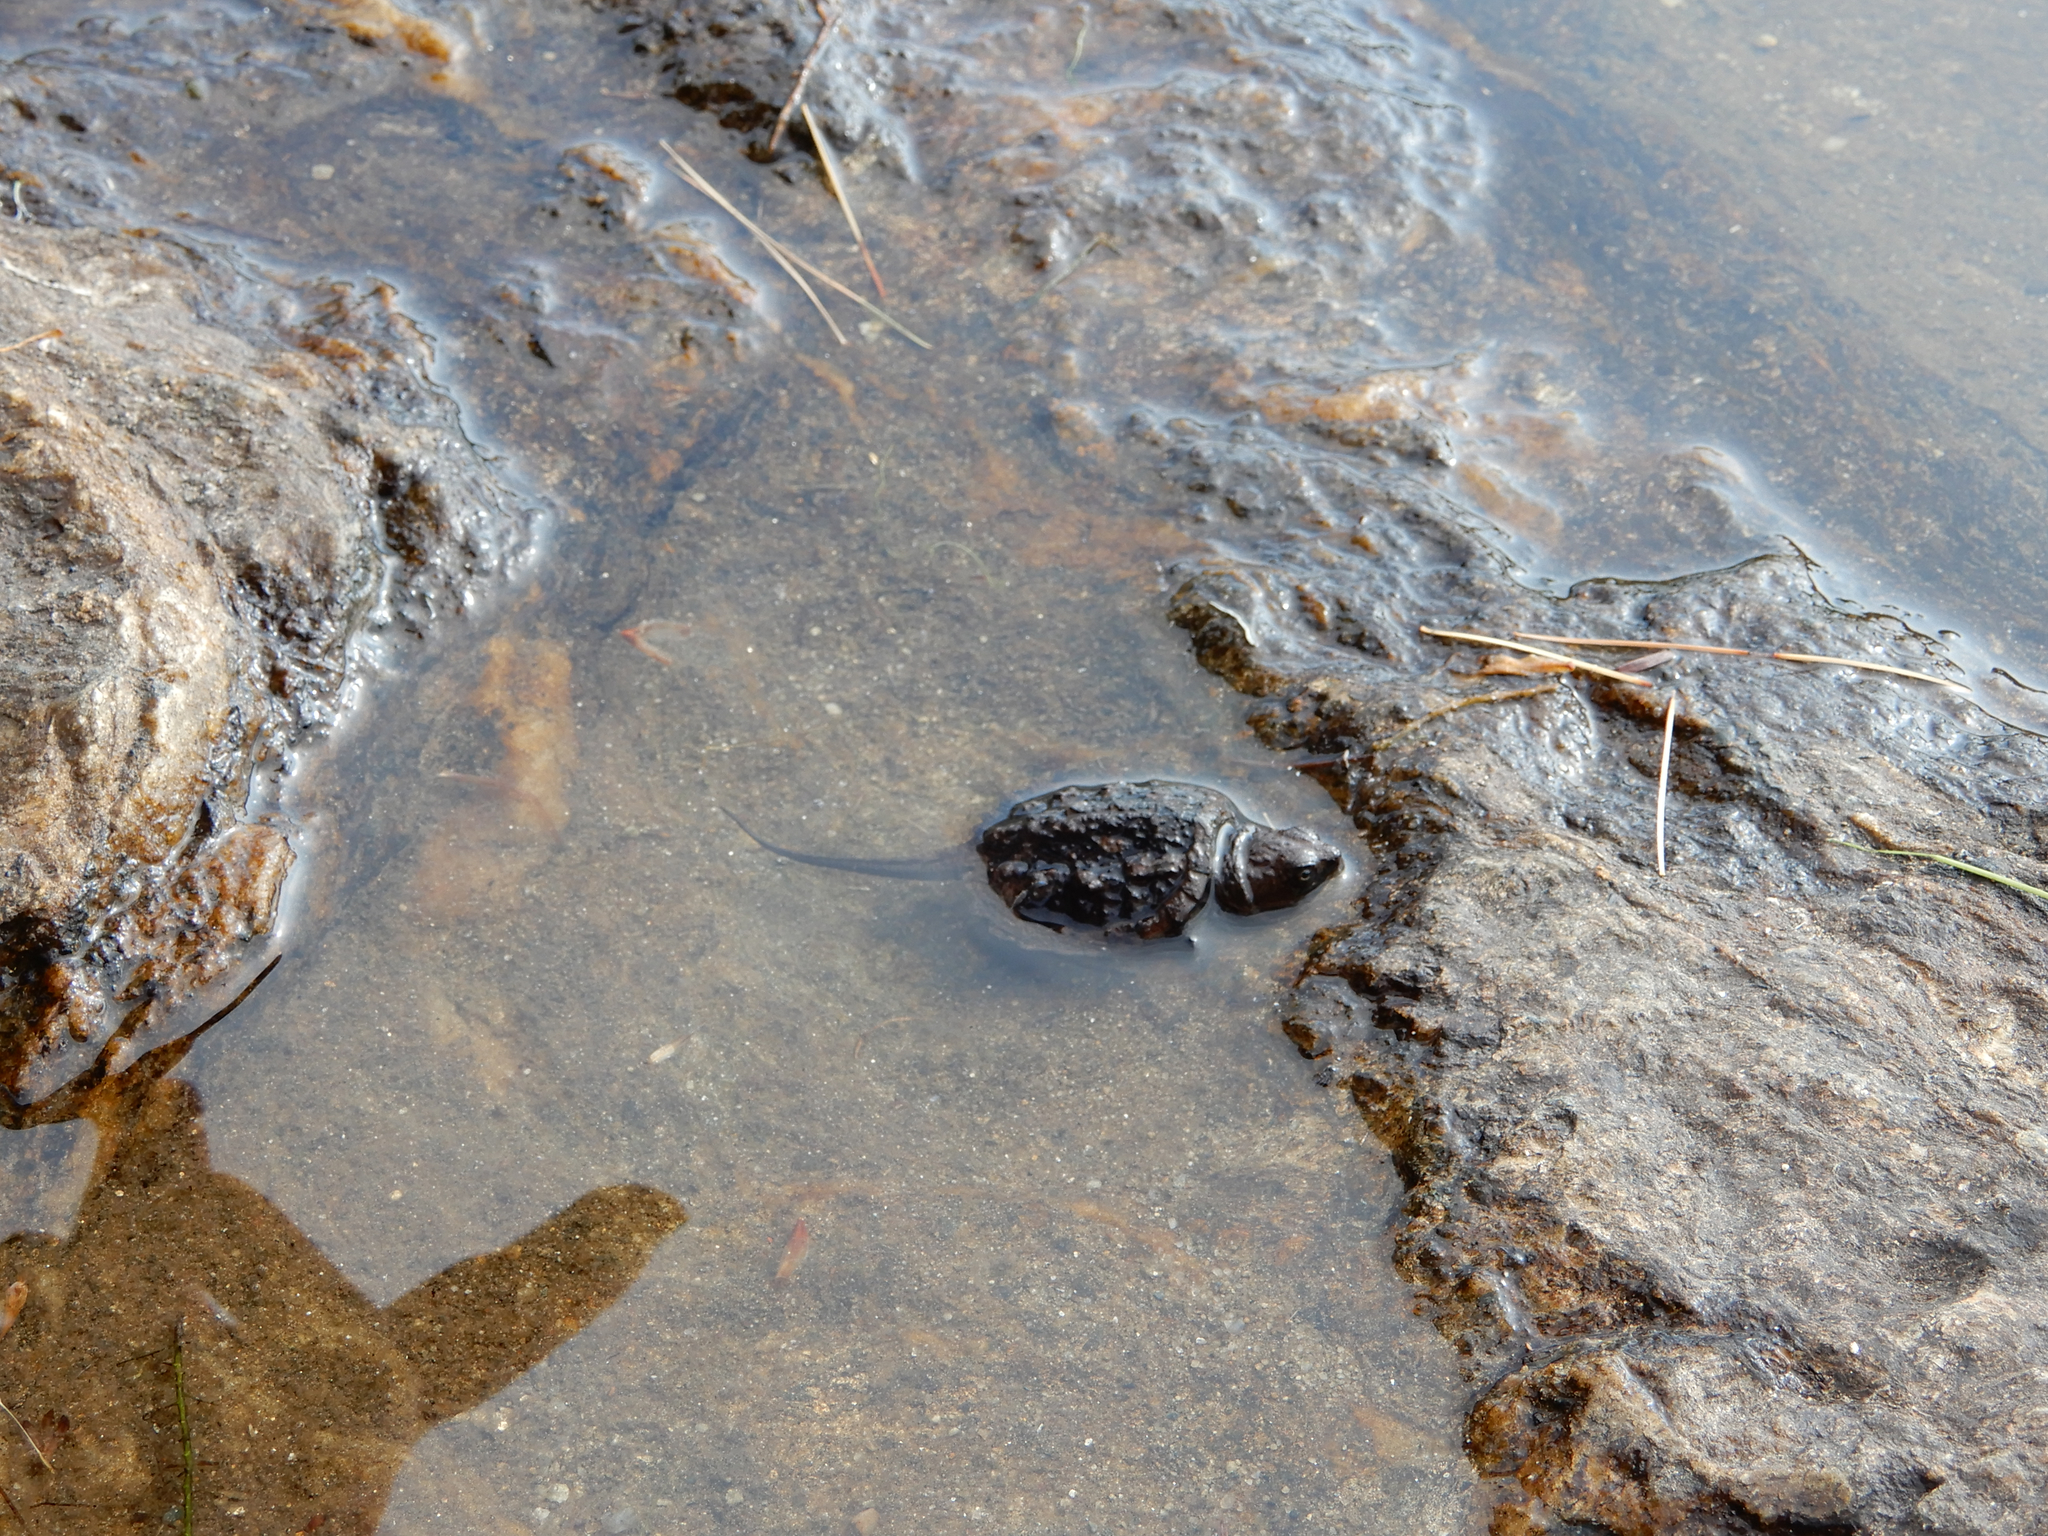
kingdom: Animalia
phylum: Chordata
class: Testudines
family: Chelydridae
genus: Chelydra
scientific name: Chelydra serpentina
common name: Common snapping turtle
